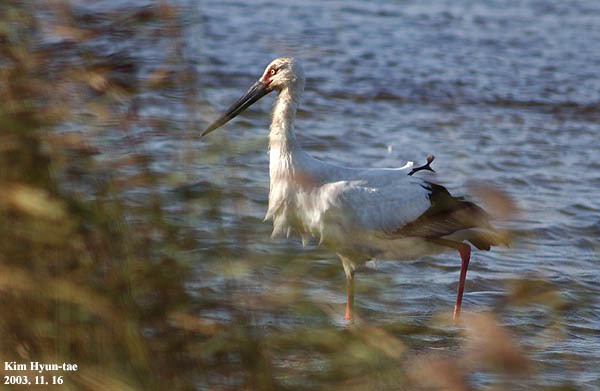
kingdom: Animalia
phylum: Chordata
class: Aves
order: Ciconiiformes
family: Ciconiidae
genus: Ciconia
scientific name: Ciconia boyciana
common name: Oriental stork
